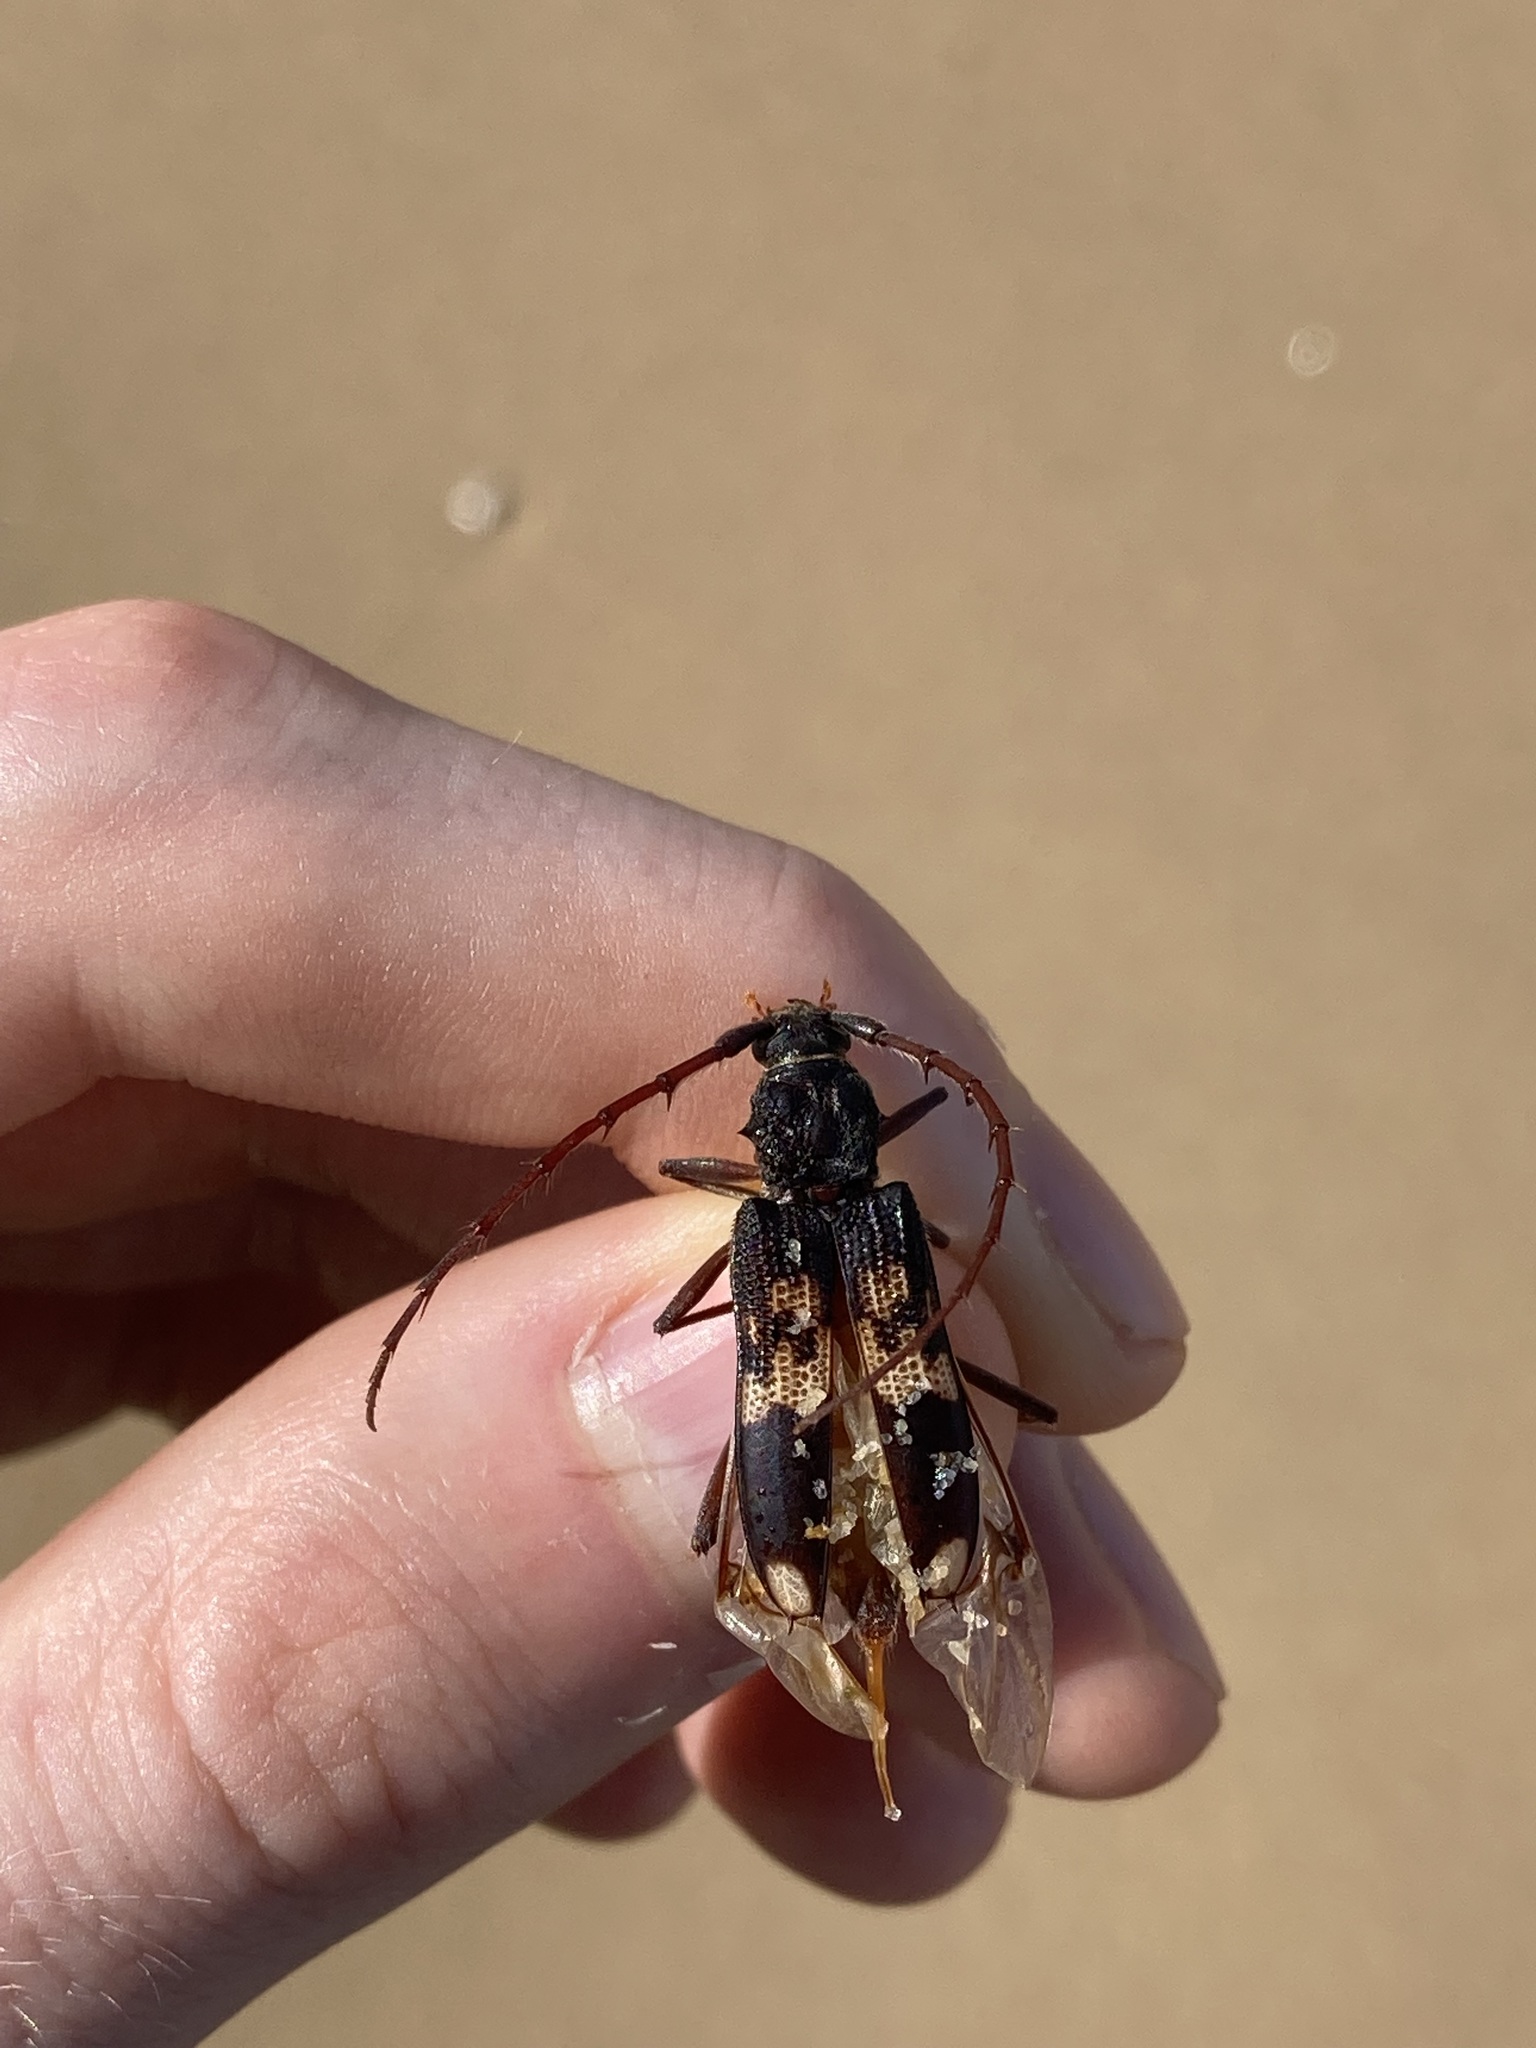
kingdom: Animalia
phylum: Arthropoda
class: Insecta
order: Coleoptera
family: Cerambycidae
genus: Phoracantha
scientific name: Phoracantha semipunctata
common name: Eucalyptus longhorn borer
